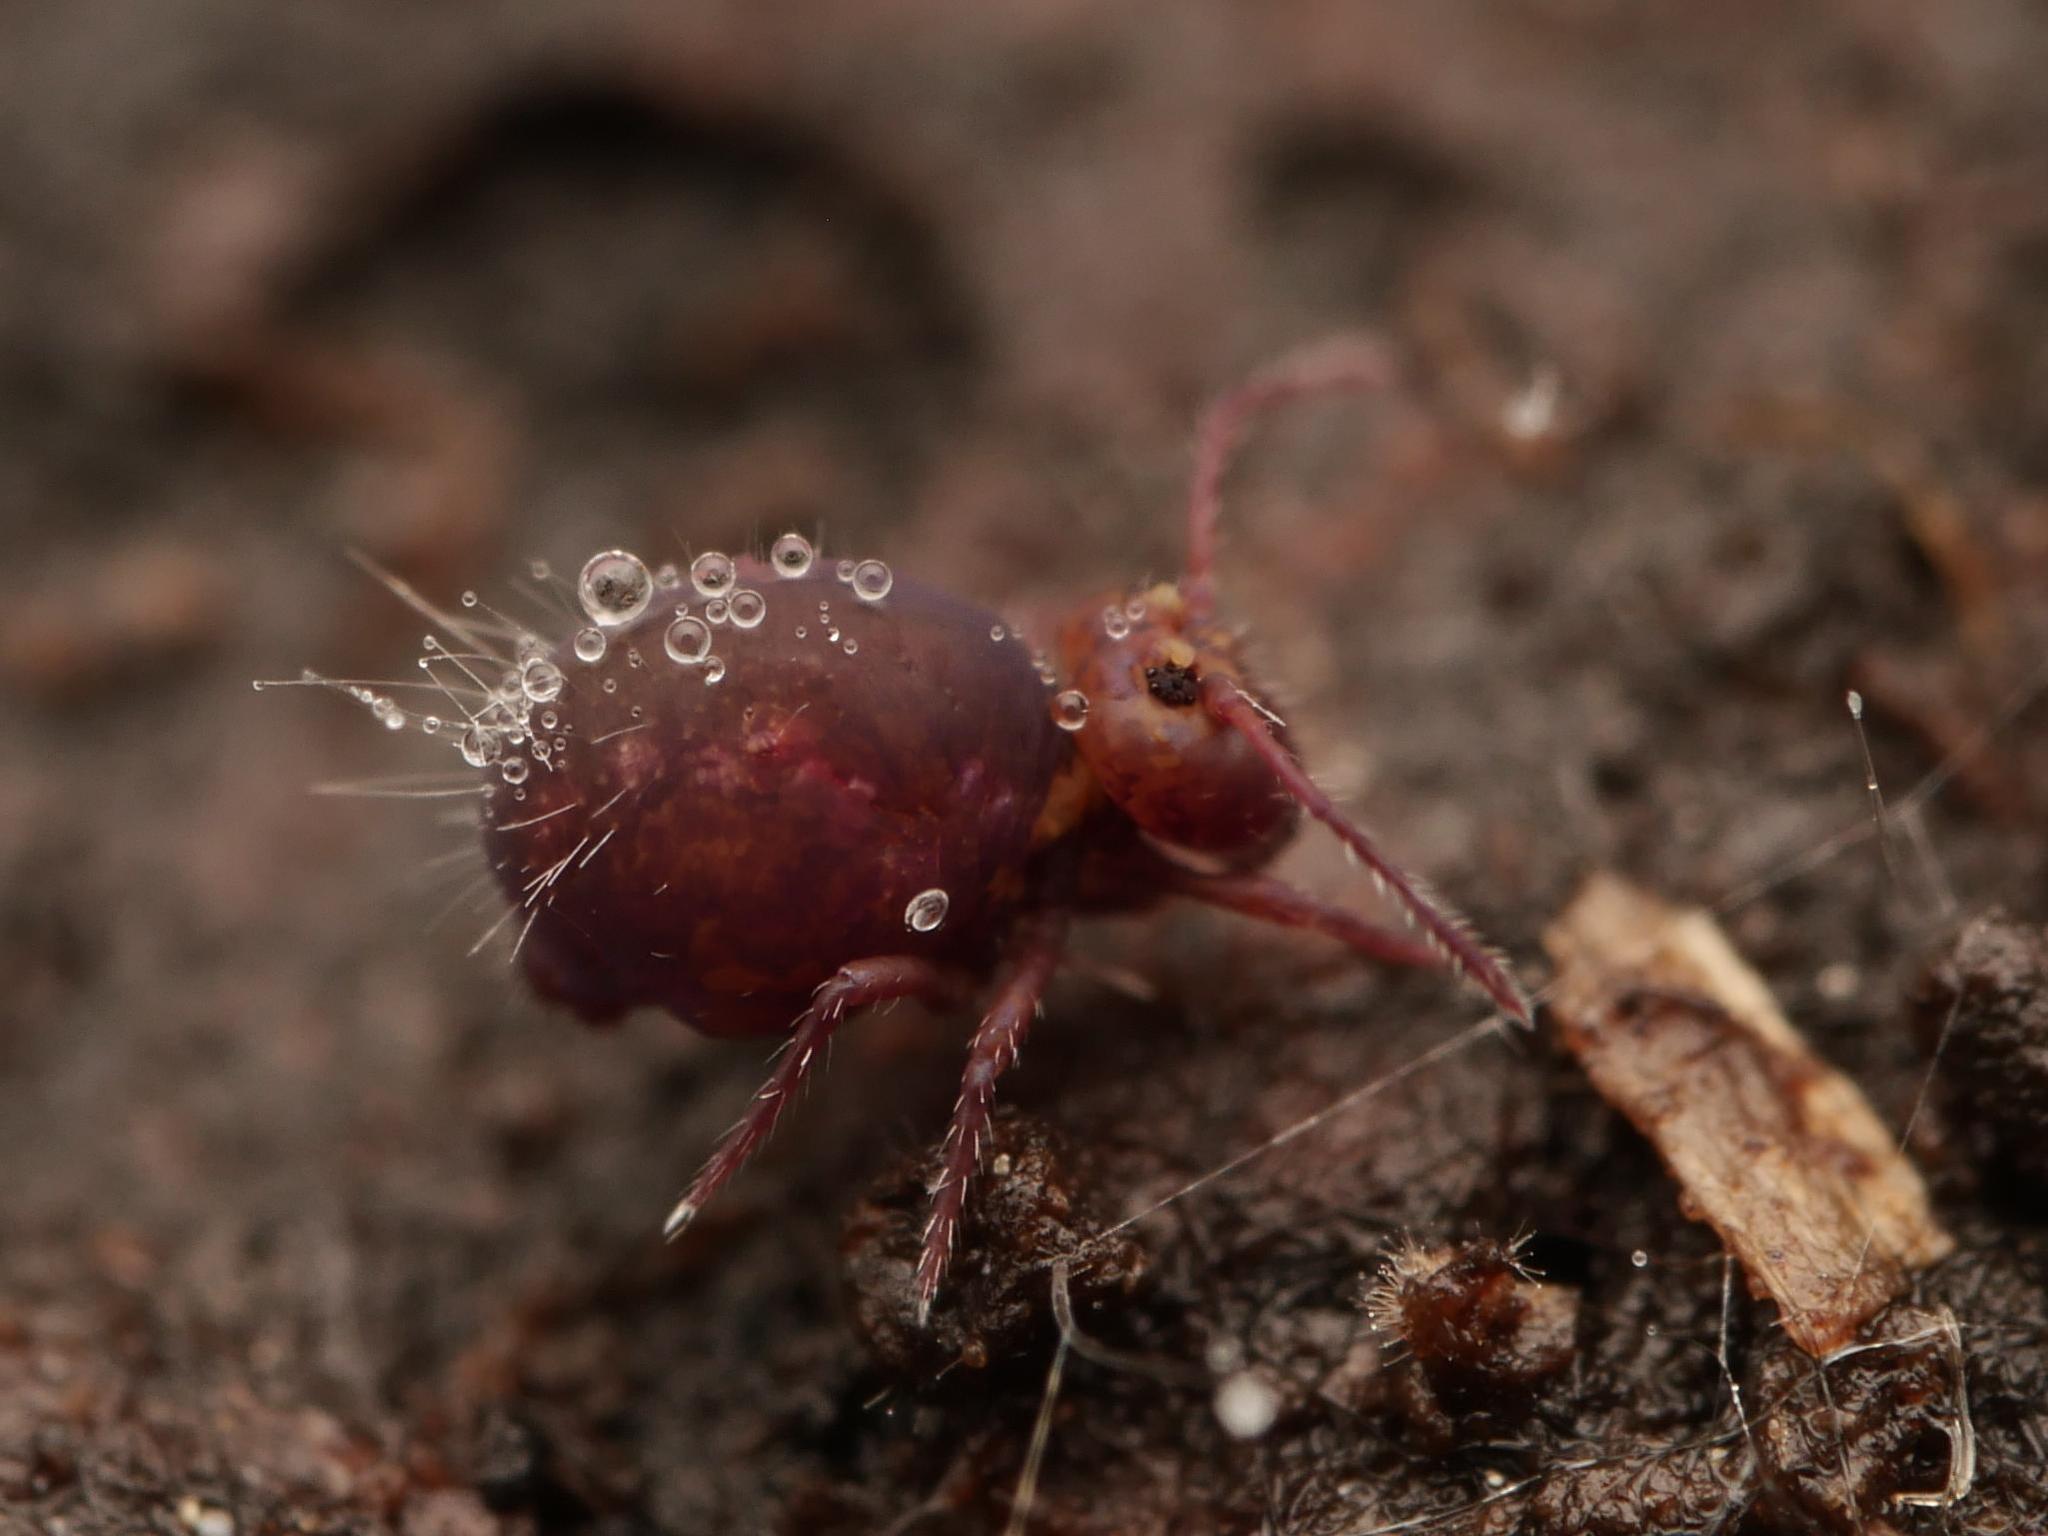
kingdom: Animalia
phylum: Arthropoda
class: Collembola
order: Symphypleona
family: Dicyrtomidae
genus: Dicyrtoma
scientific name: Dicyrtoma fusca
